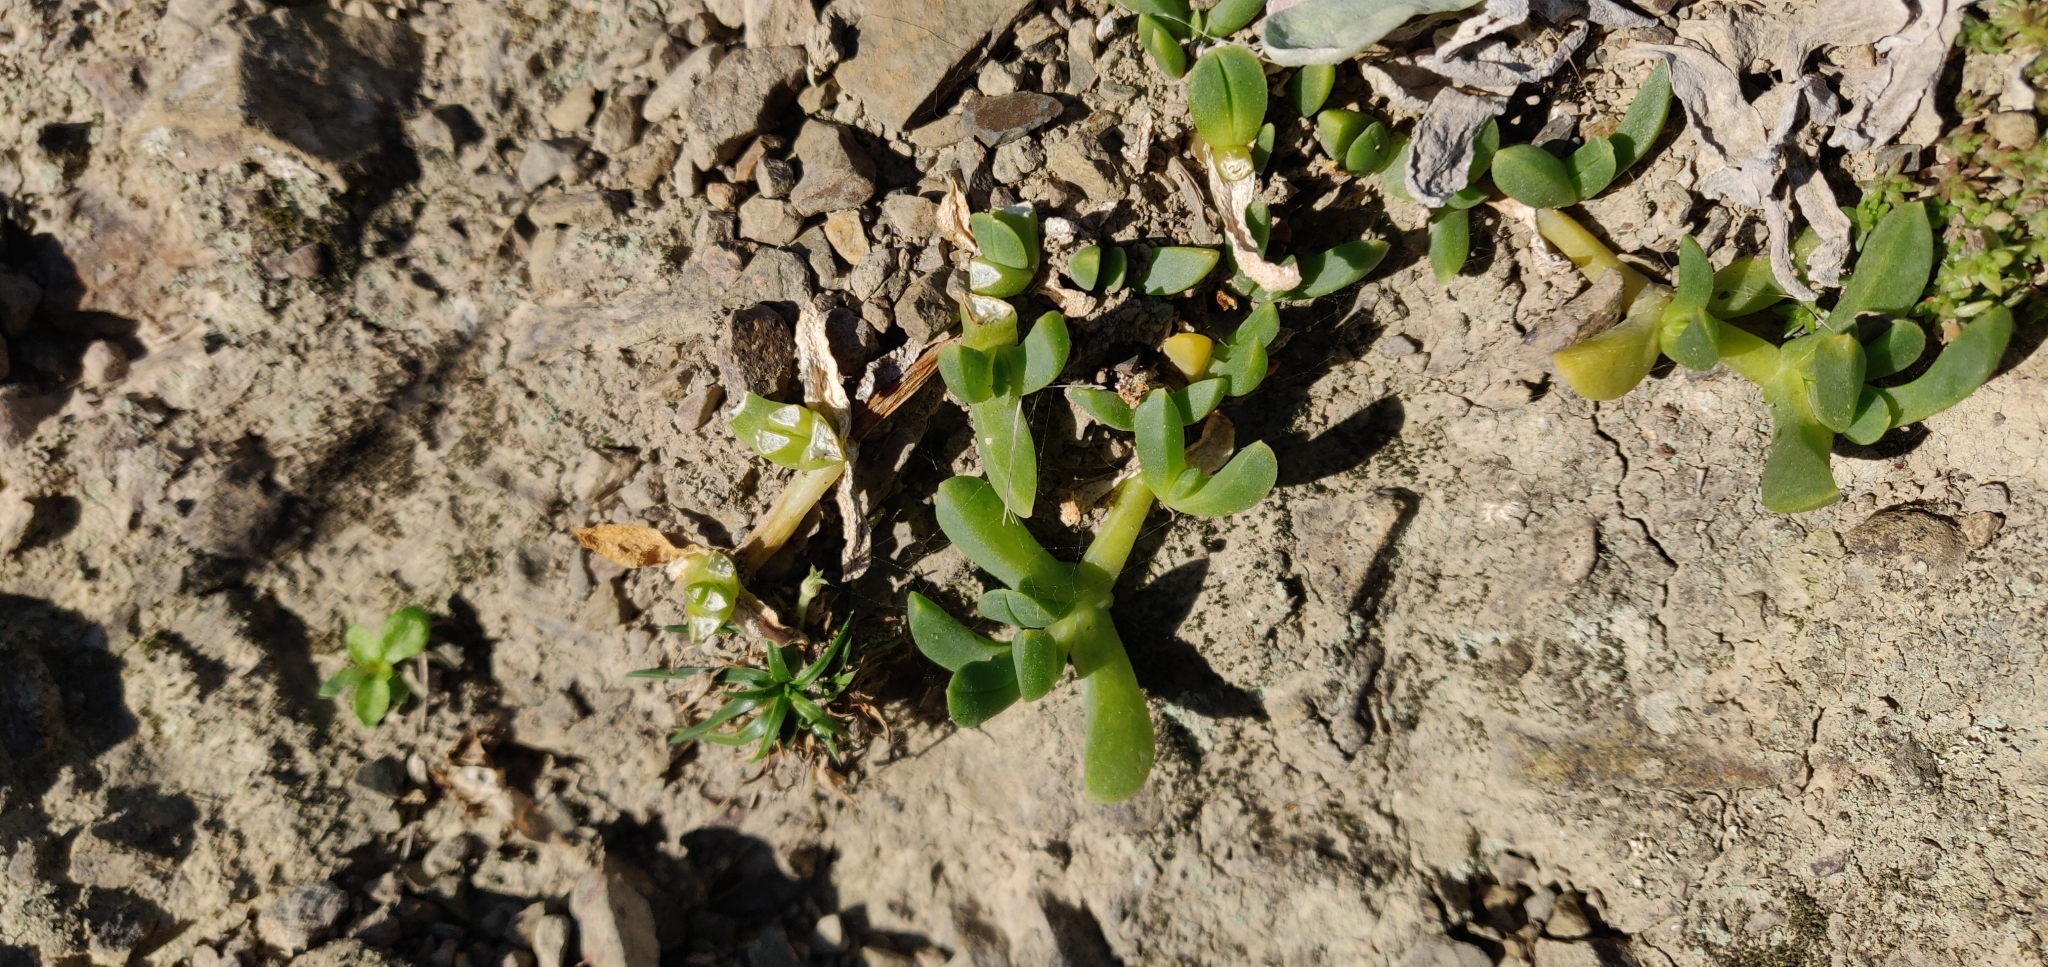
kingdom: Plantae
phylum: Tracheophyta
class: Magnoliopsida
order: Caryophyllales
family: Aizoaceae
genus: Disphyma
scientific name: Disphyma australe
